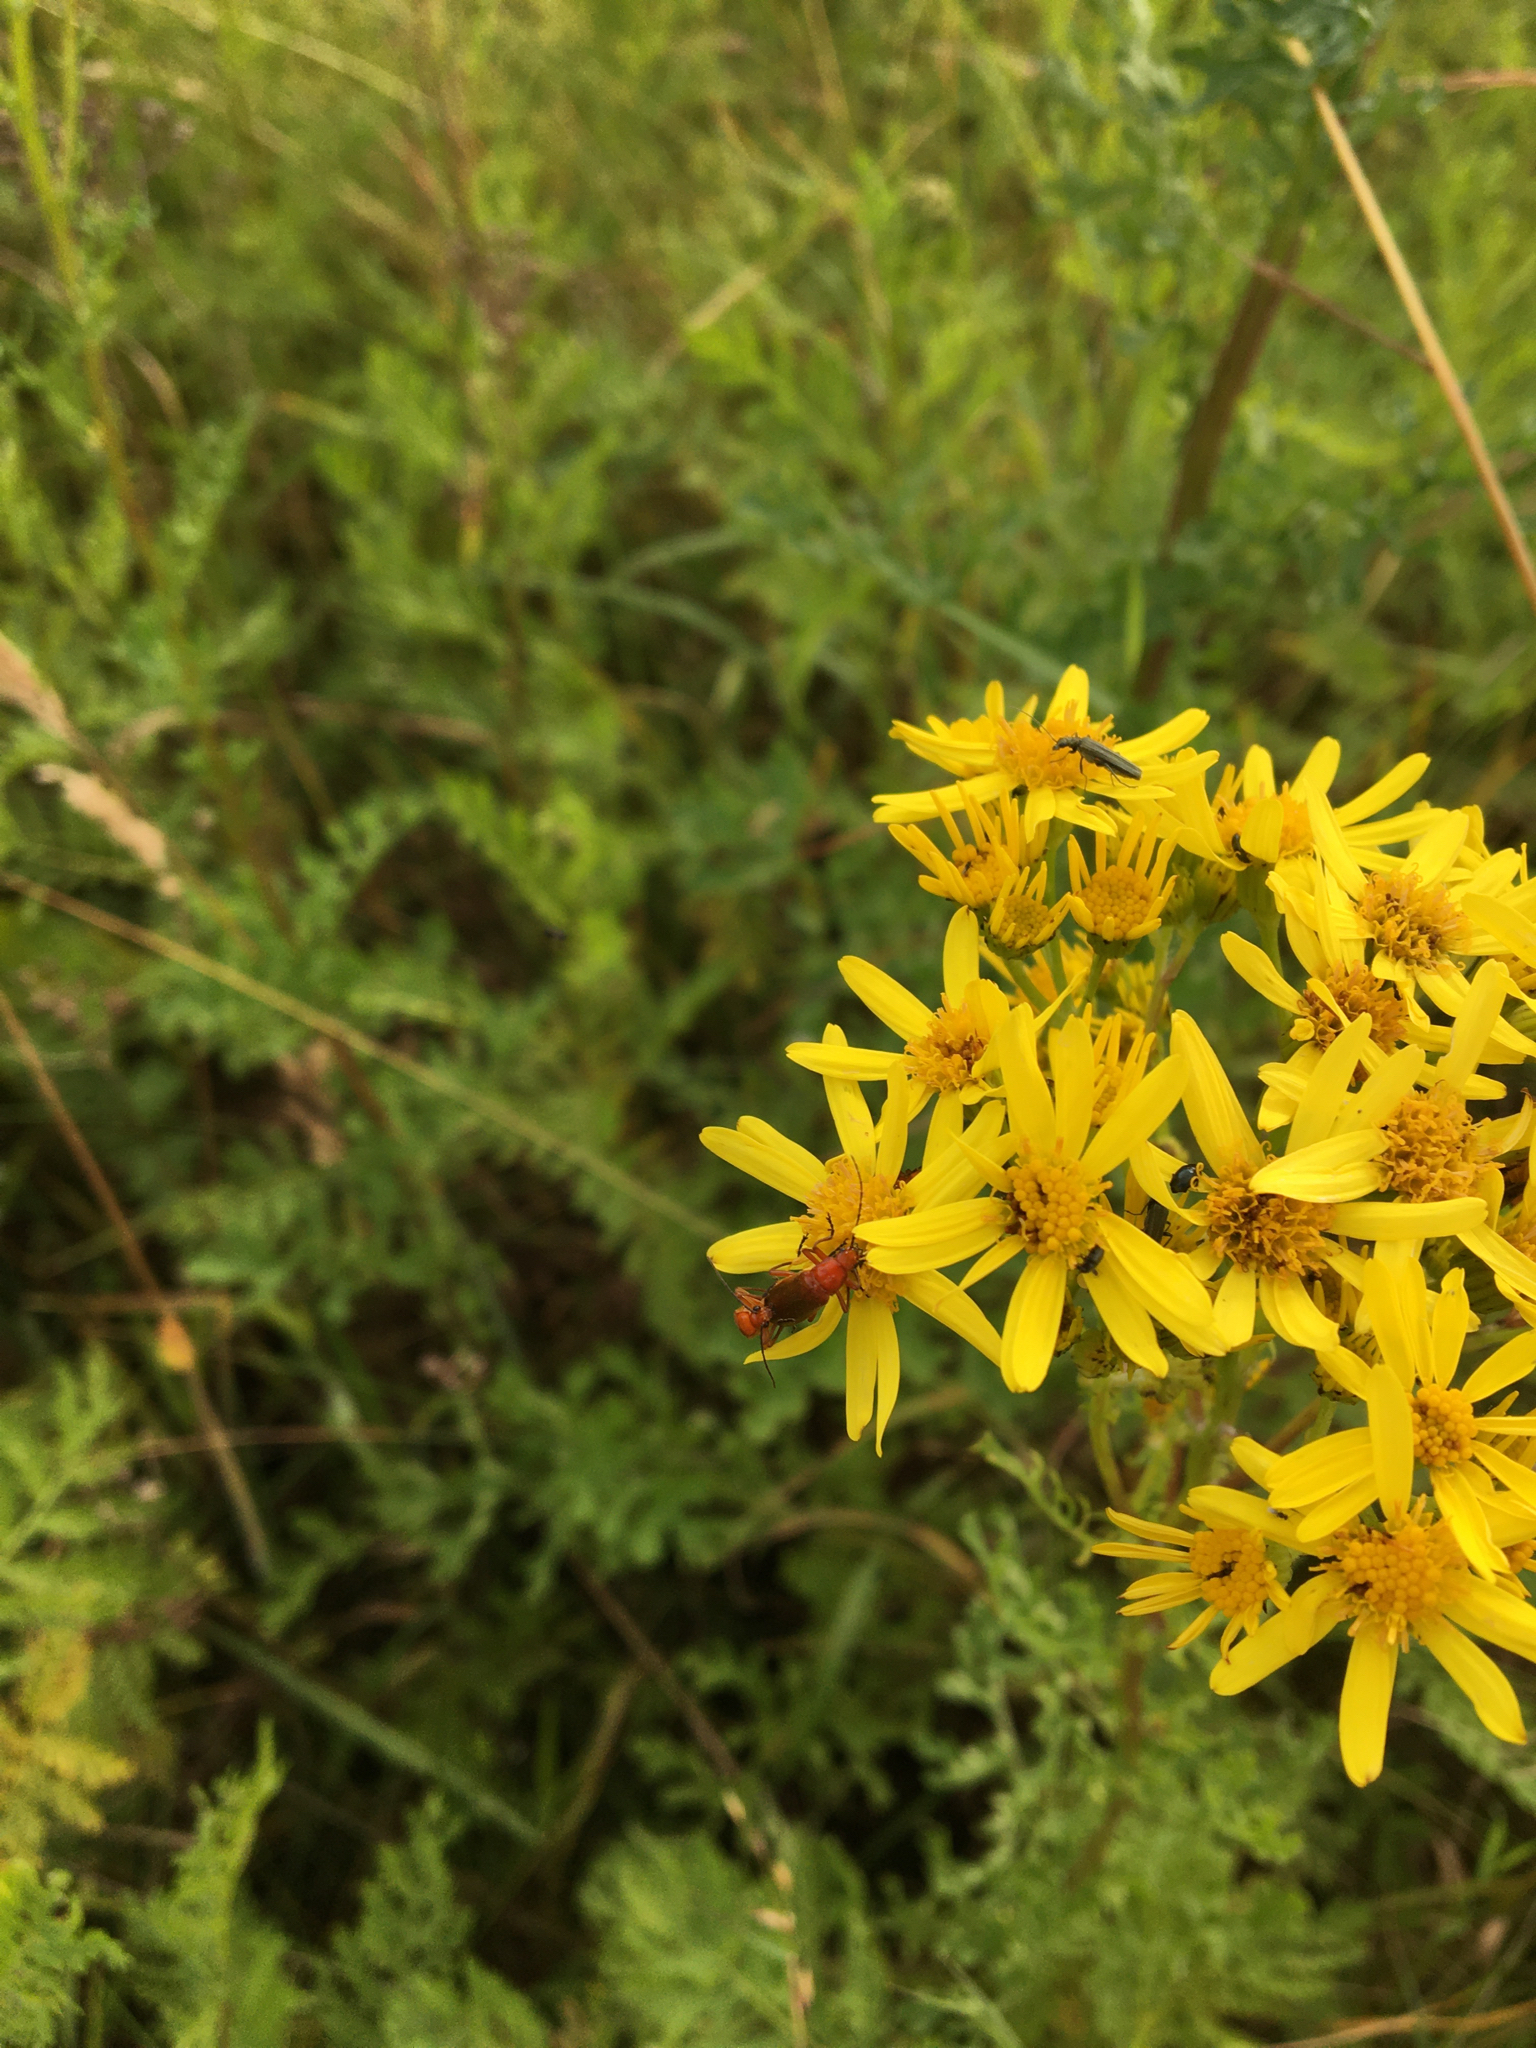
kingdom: Plantae
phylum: Tracheophyta
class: Magnoliopsida
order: Asterales
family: Asteraceae
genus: Jacobaea
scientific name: Jacobaea vulgaris
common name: Stinking willie
